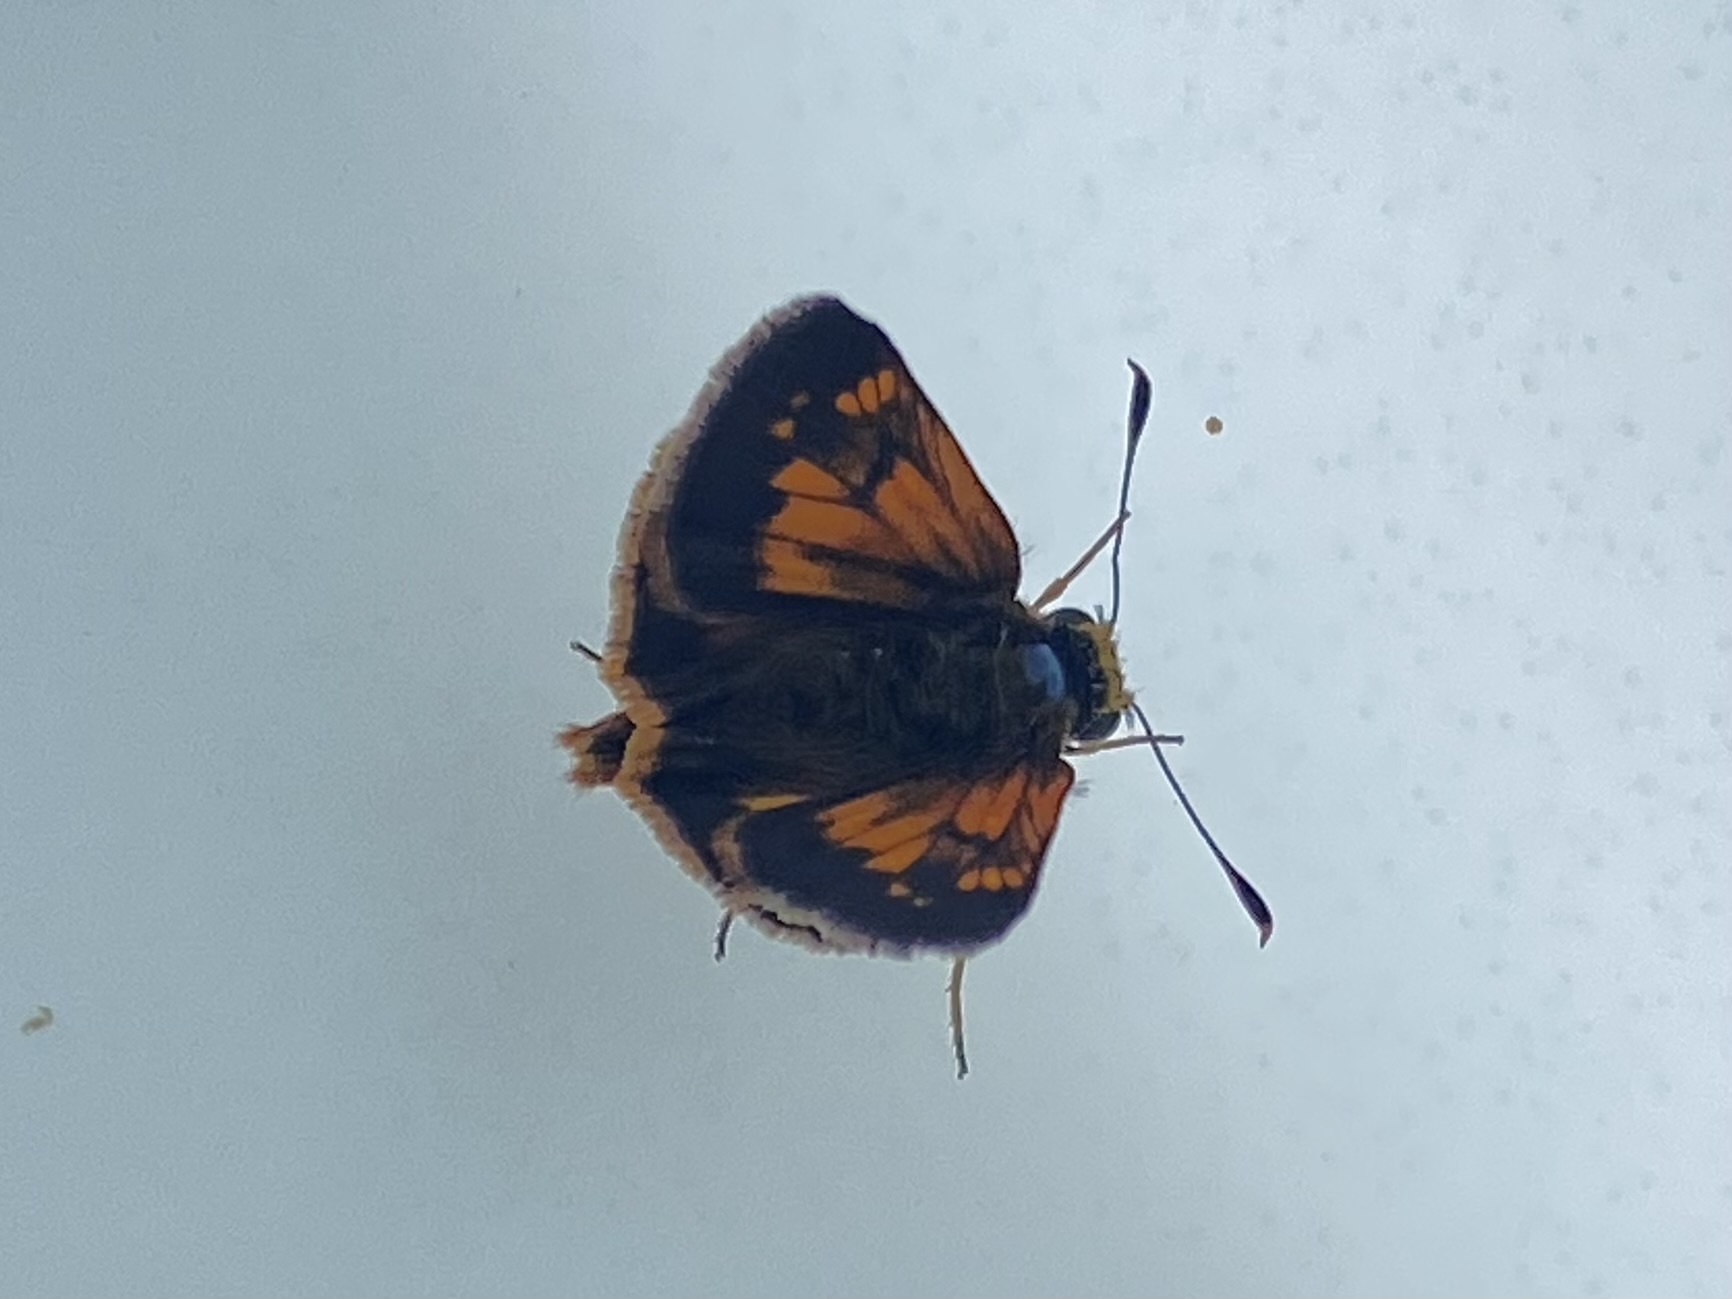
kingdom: Animalia
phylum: Arthropoda
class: Insecta
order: Lepidoptera
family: Hesperiidae
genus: Lon
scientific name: Lon hobomok
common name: Hobomok skipper
